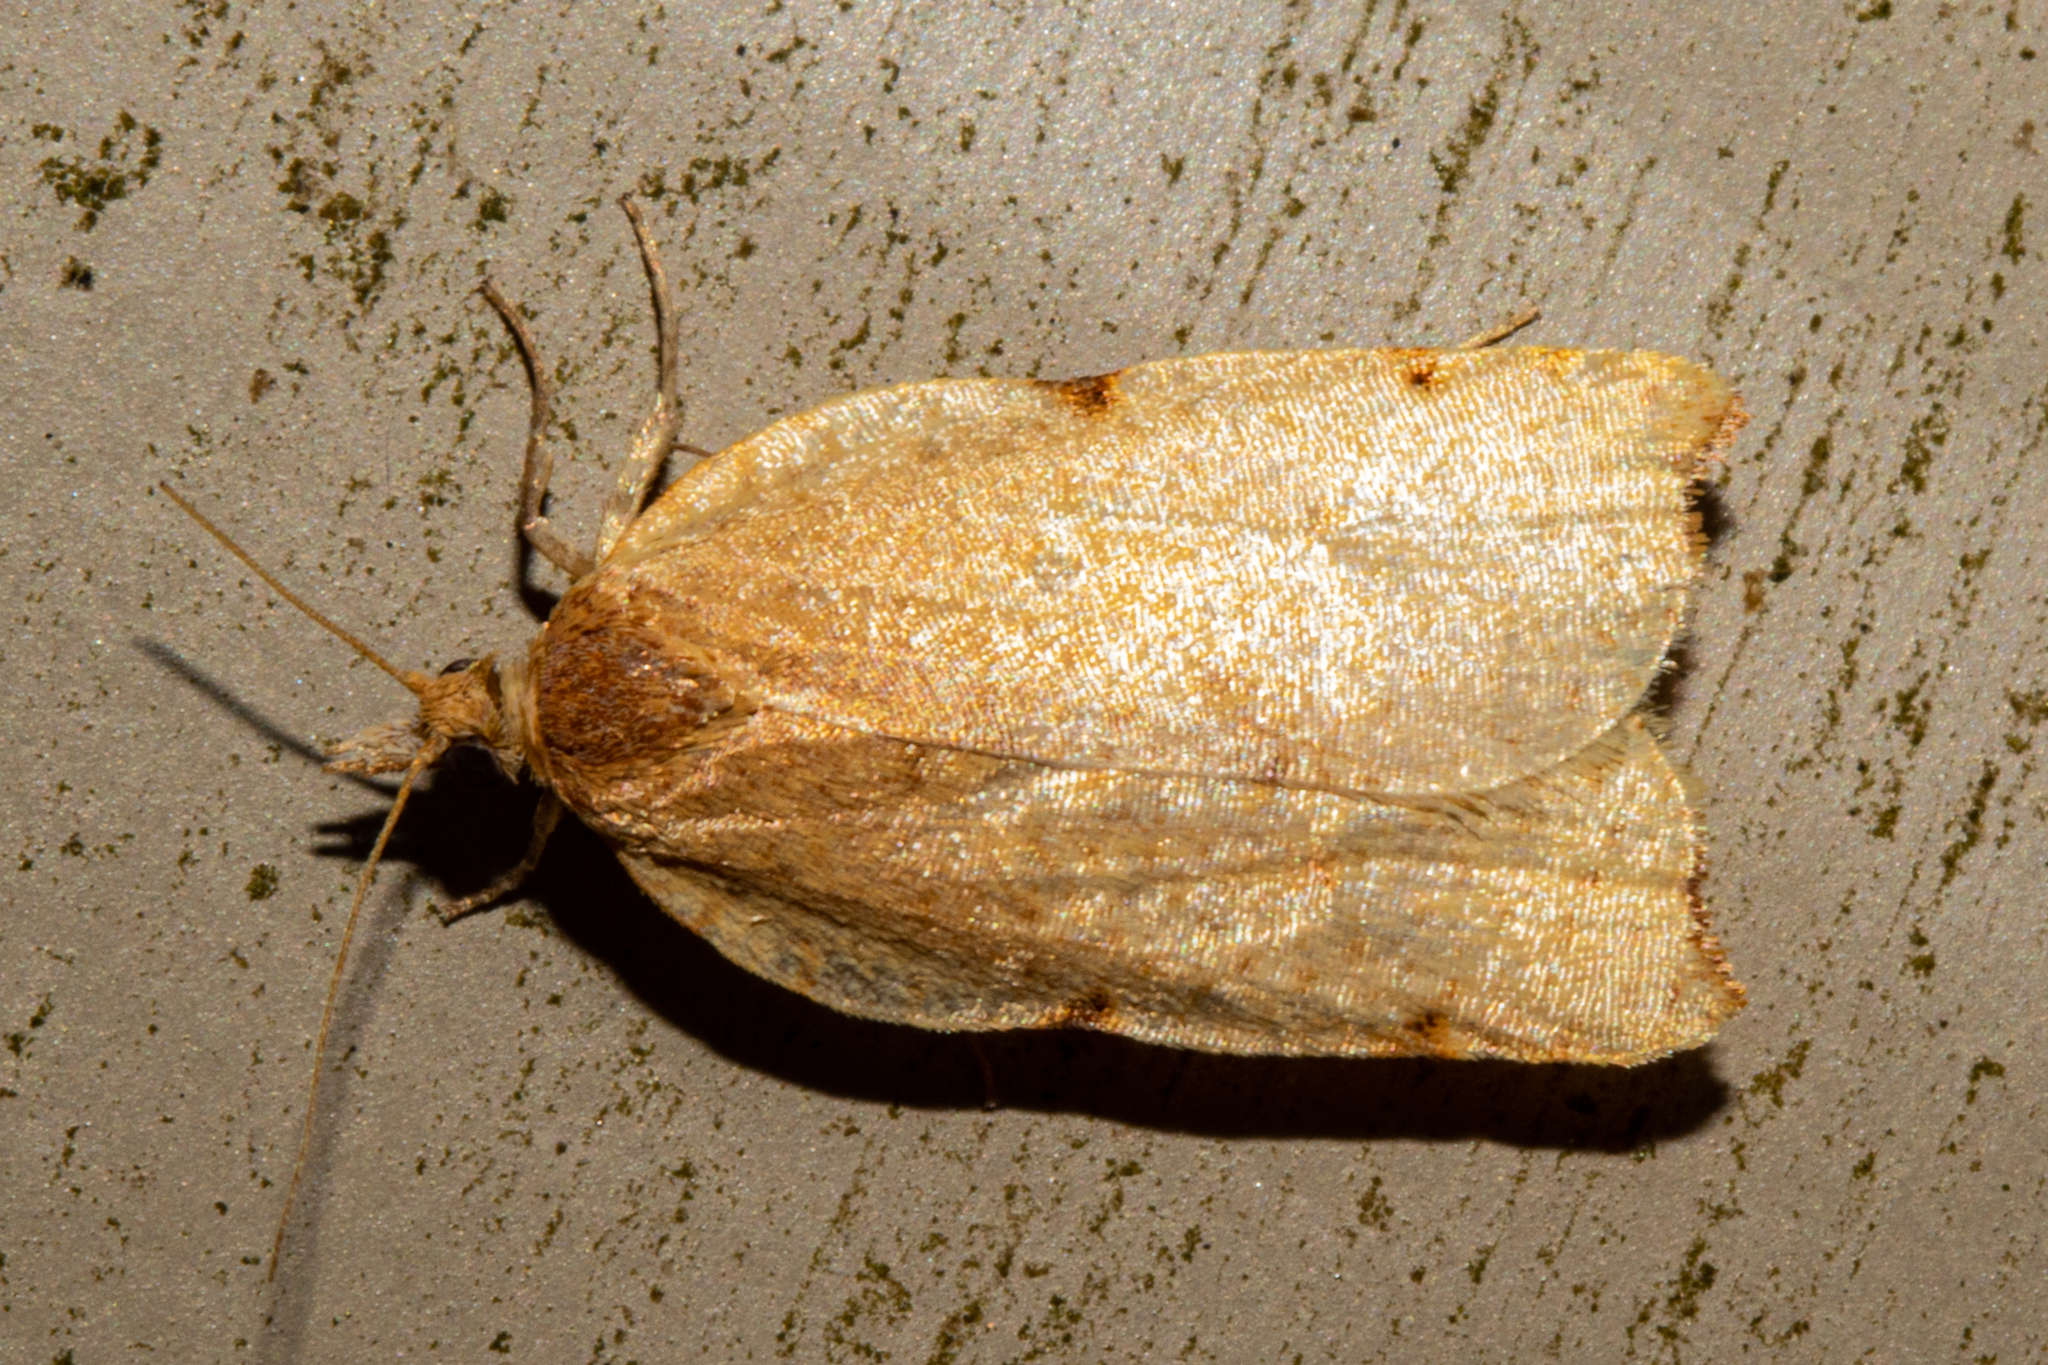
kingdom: Animalia
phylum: Arthropoda
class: Insecta
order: Lepidoptera
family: Tortricidae
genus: Apoctena
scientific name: Apoctena flavescens
